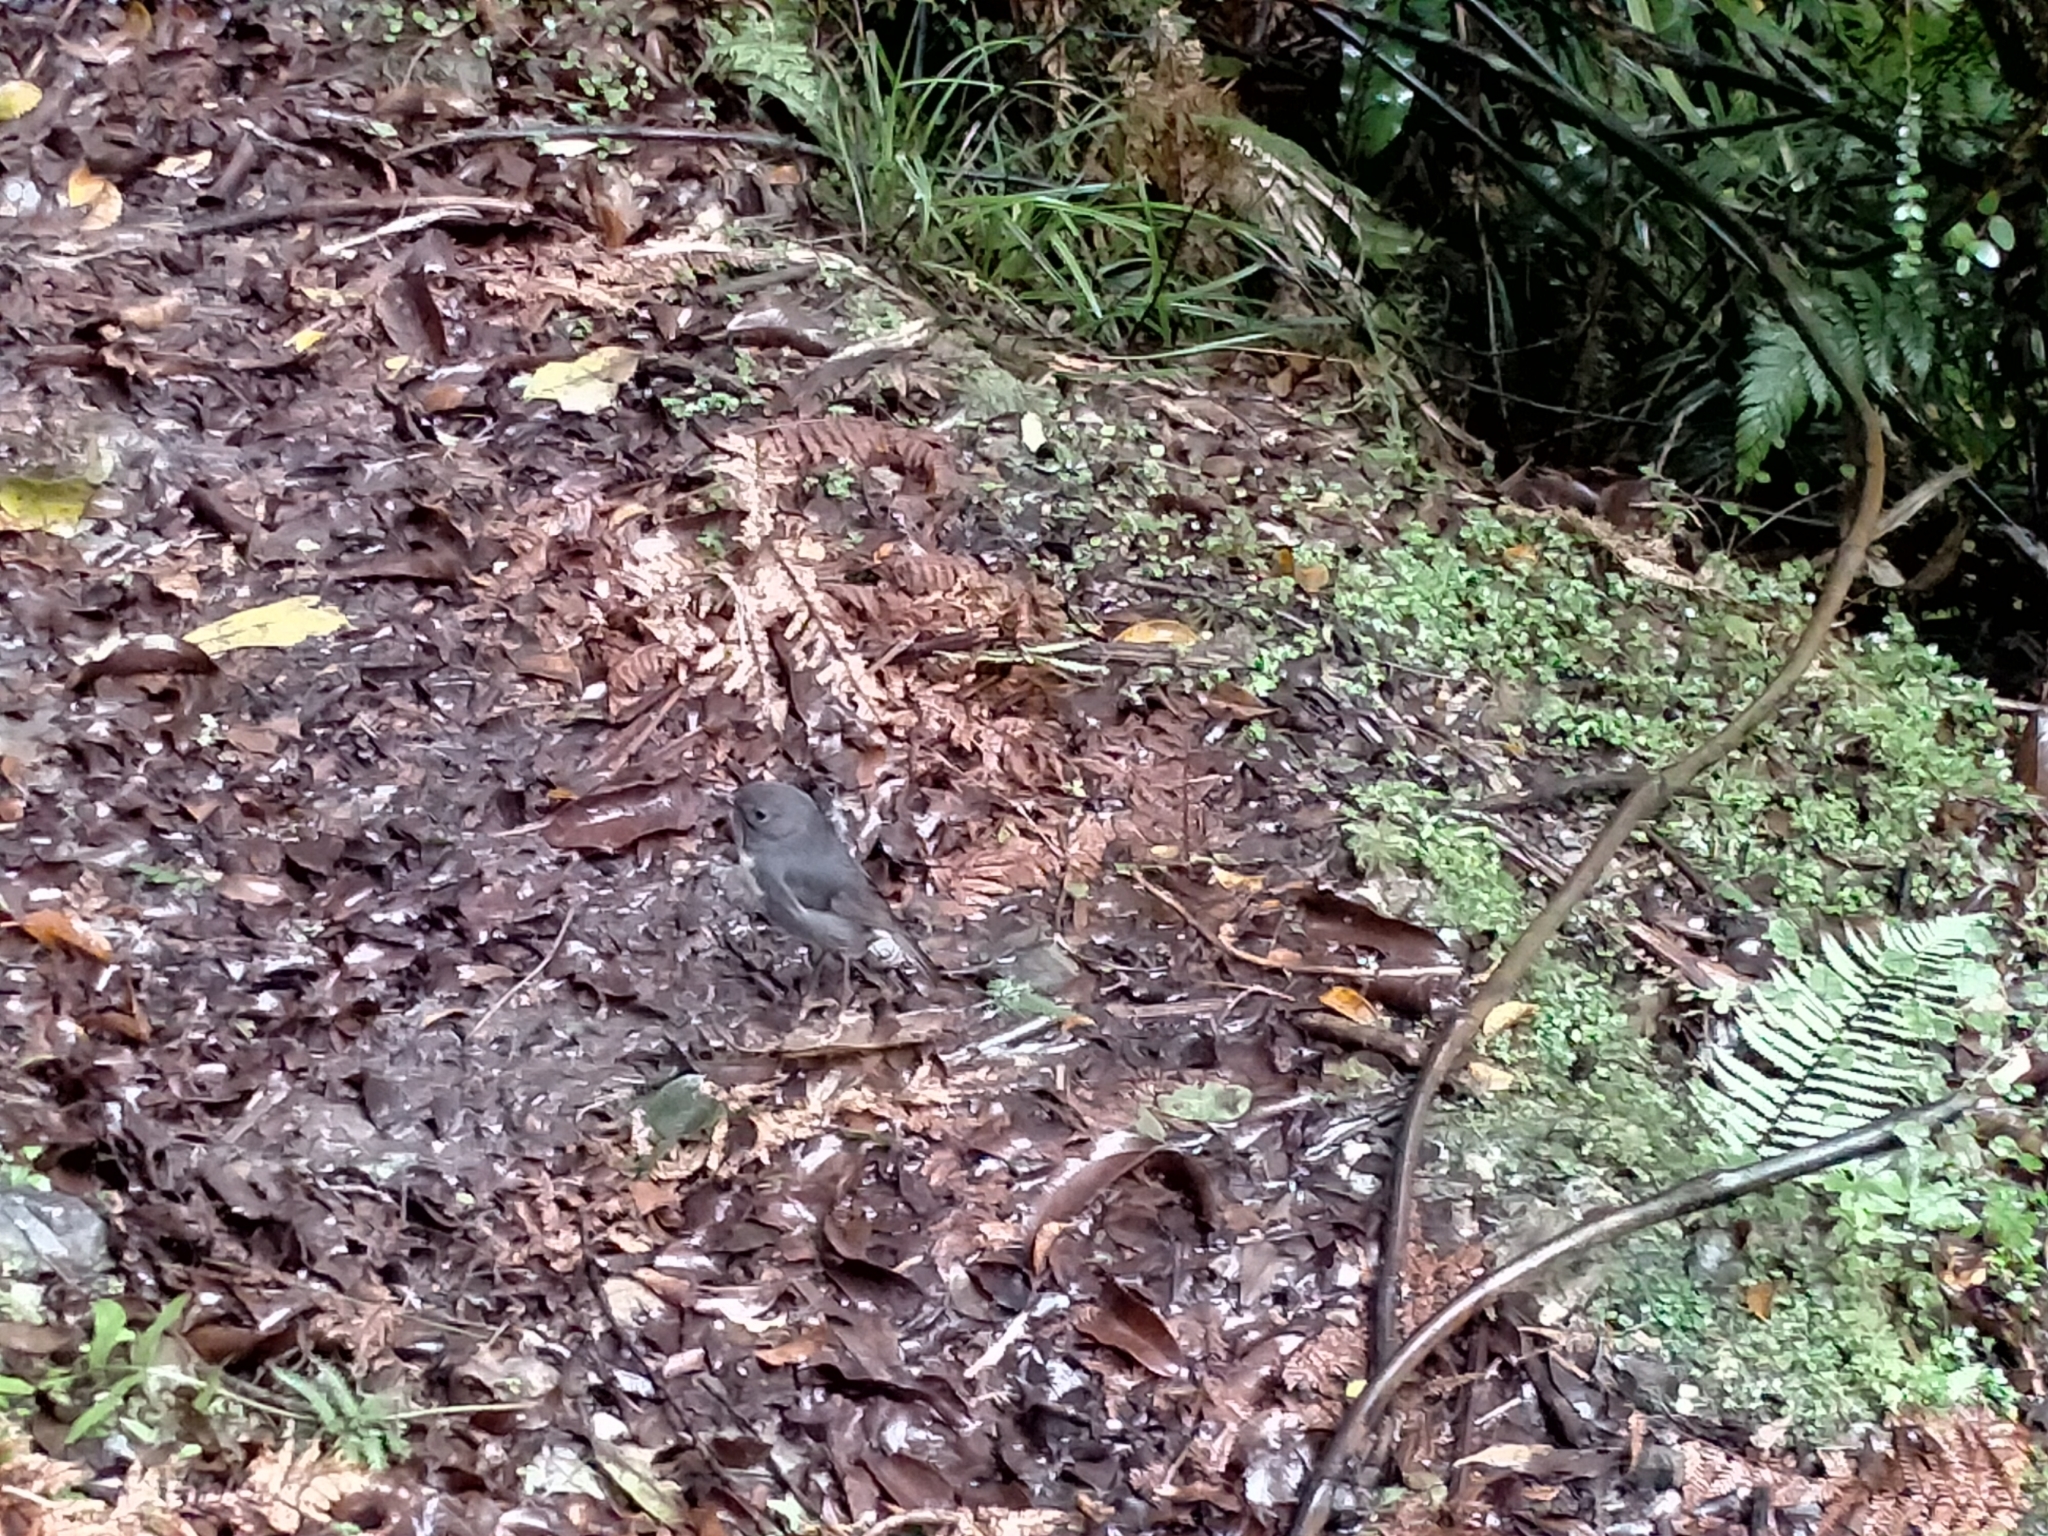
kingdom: Animalia
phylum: Chordata
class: Aves
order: Passeriformes
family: Petroicidae
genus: Petroica
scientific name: Petroica australis
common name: New zealand robin
